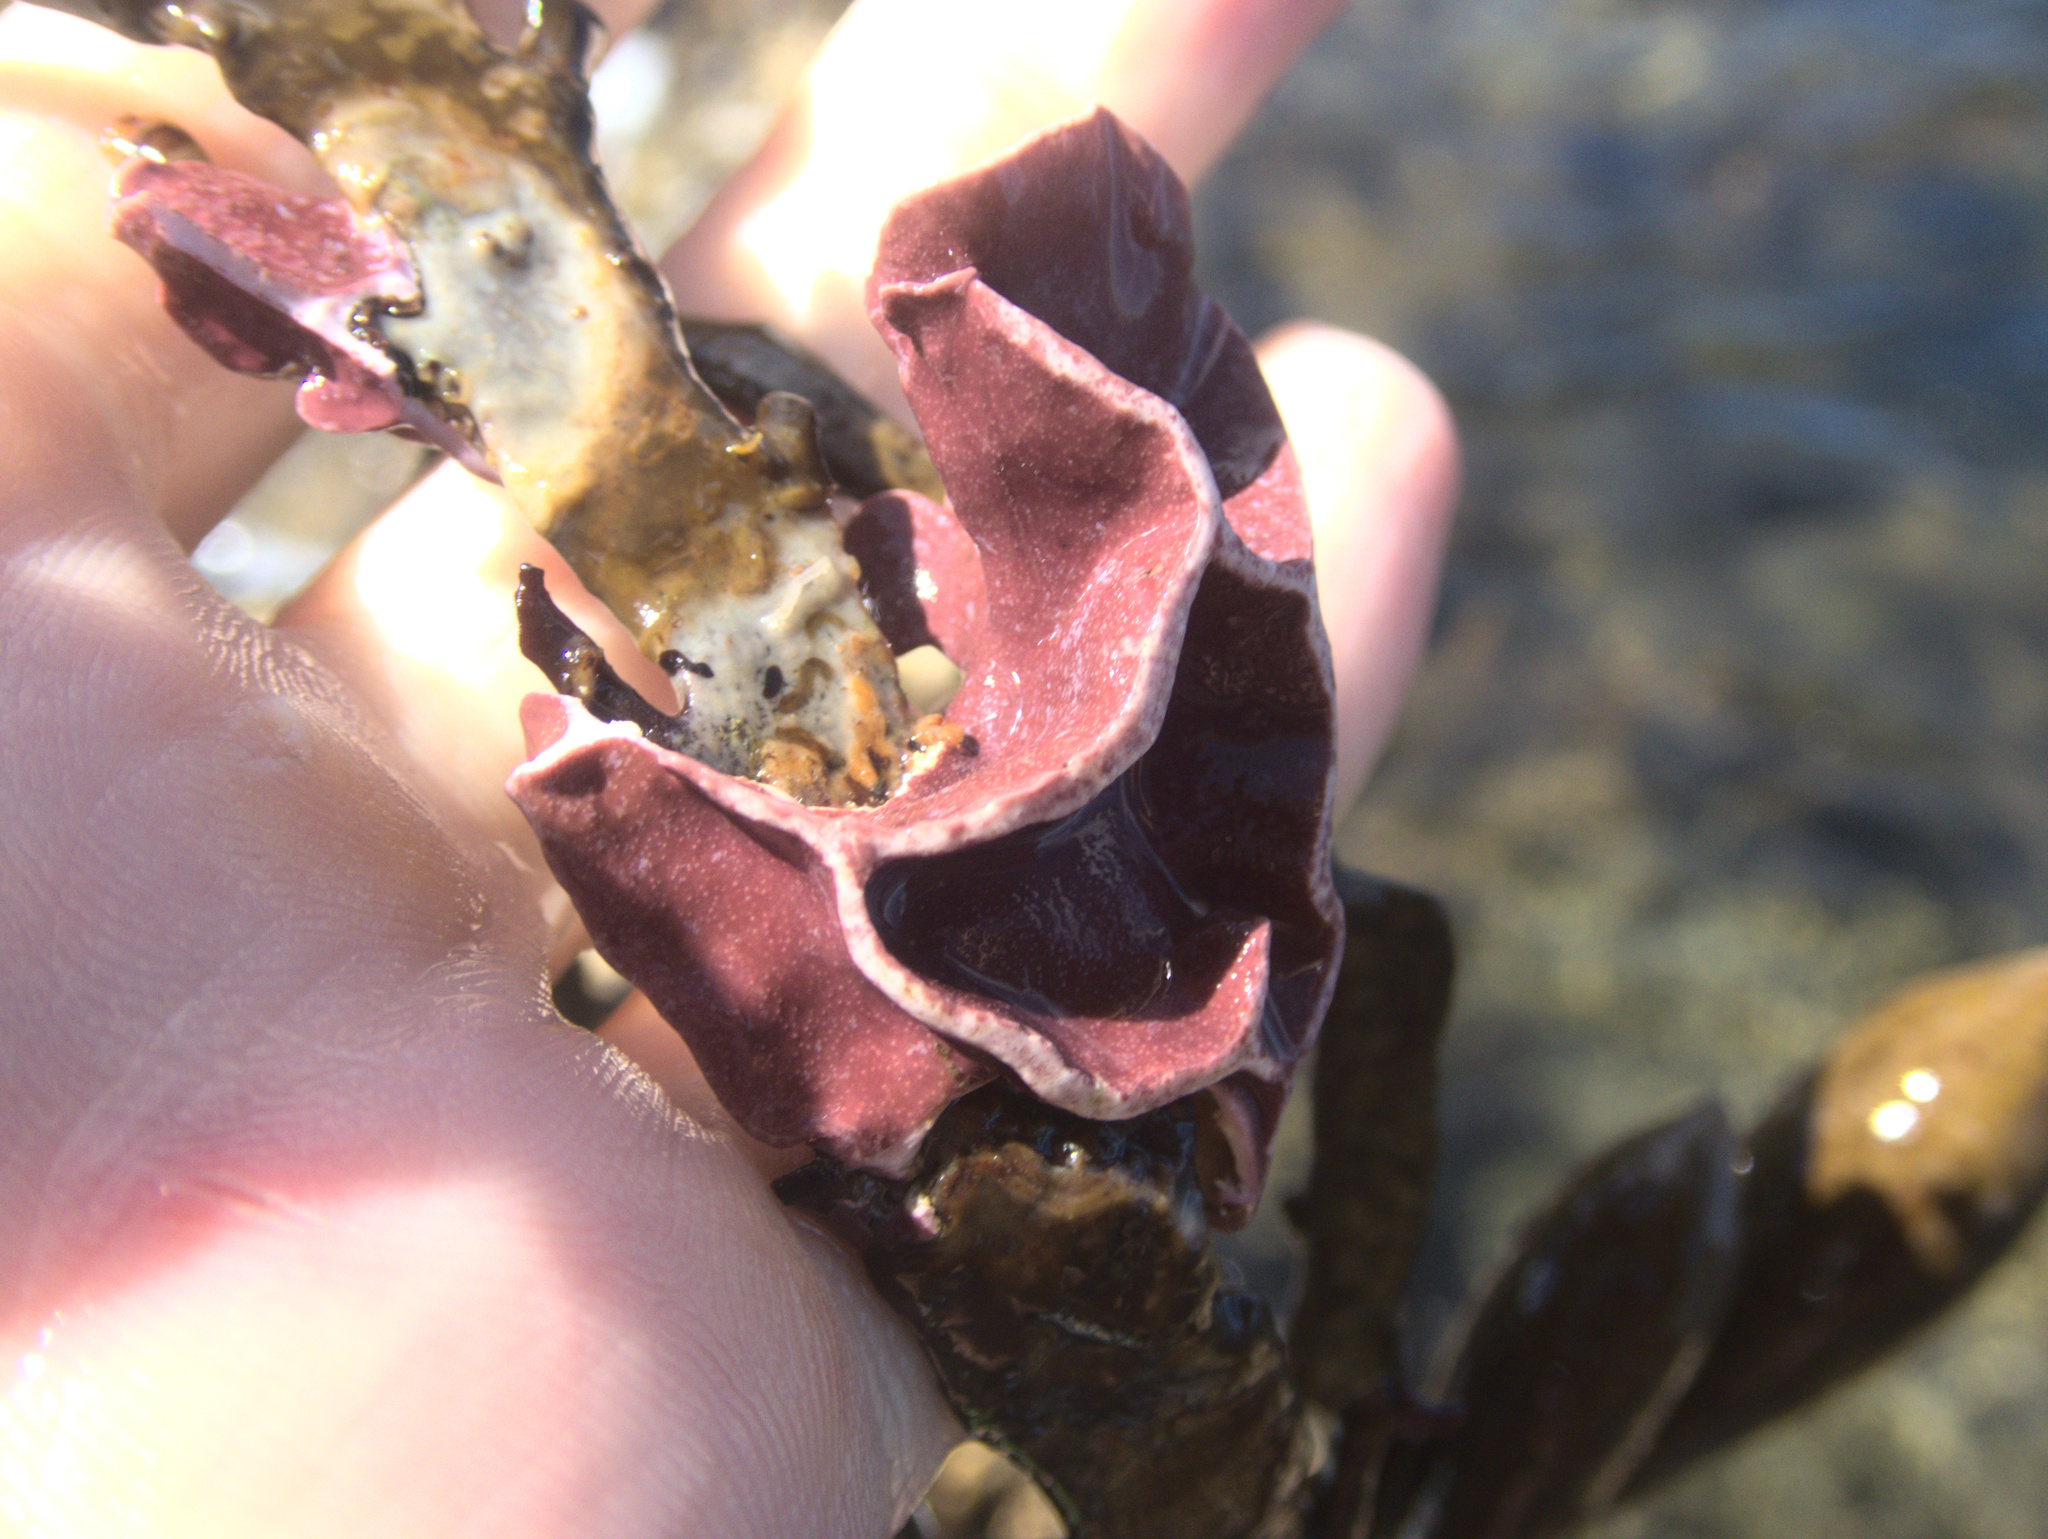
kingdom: Plantae
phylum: Rhodophyta
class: Florideophyceae
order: Corallinales
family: Lithophyllaceae
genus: Lithophyllum
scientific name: Lithophyllum carpophylli
